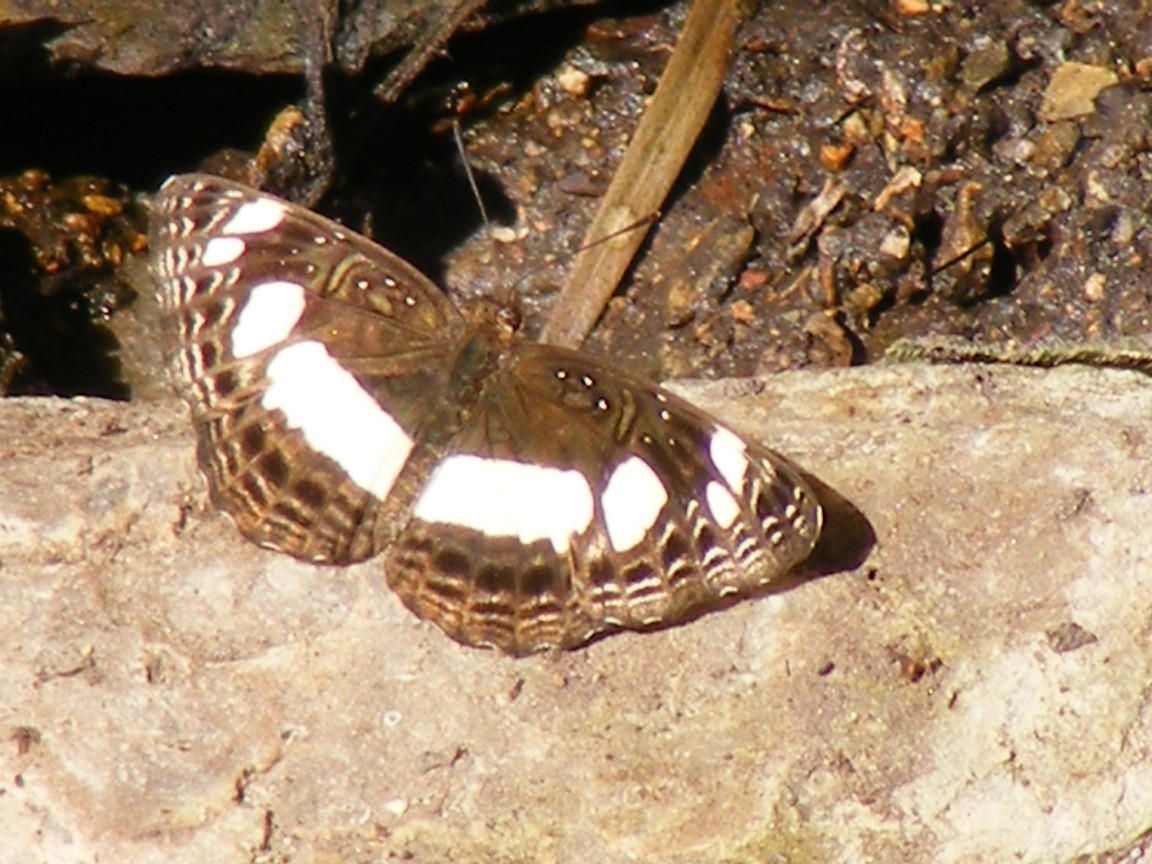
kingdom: Animalia
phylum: Arthropoda
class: Insecta
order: Lepidoptera
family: Nymphalidae
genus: Neptis
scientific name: Neptis saclava
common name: Small spotted sailor
